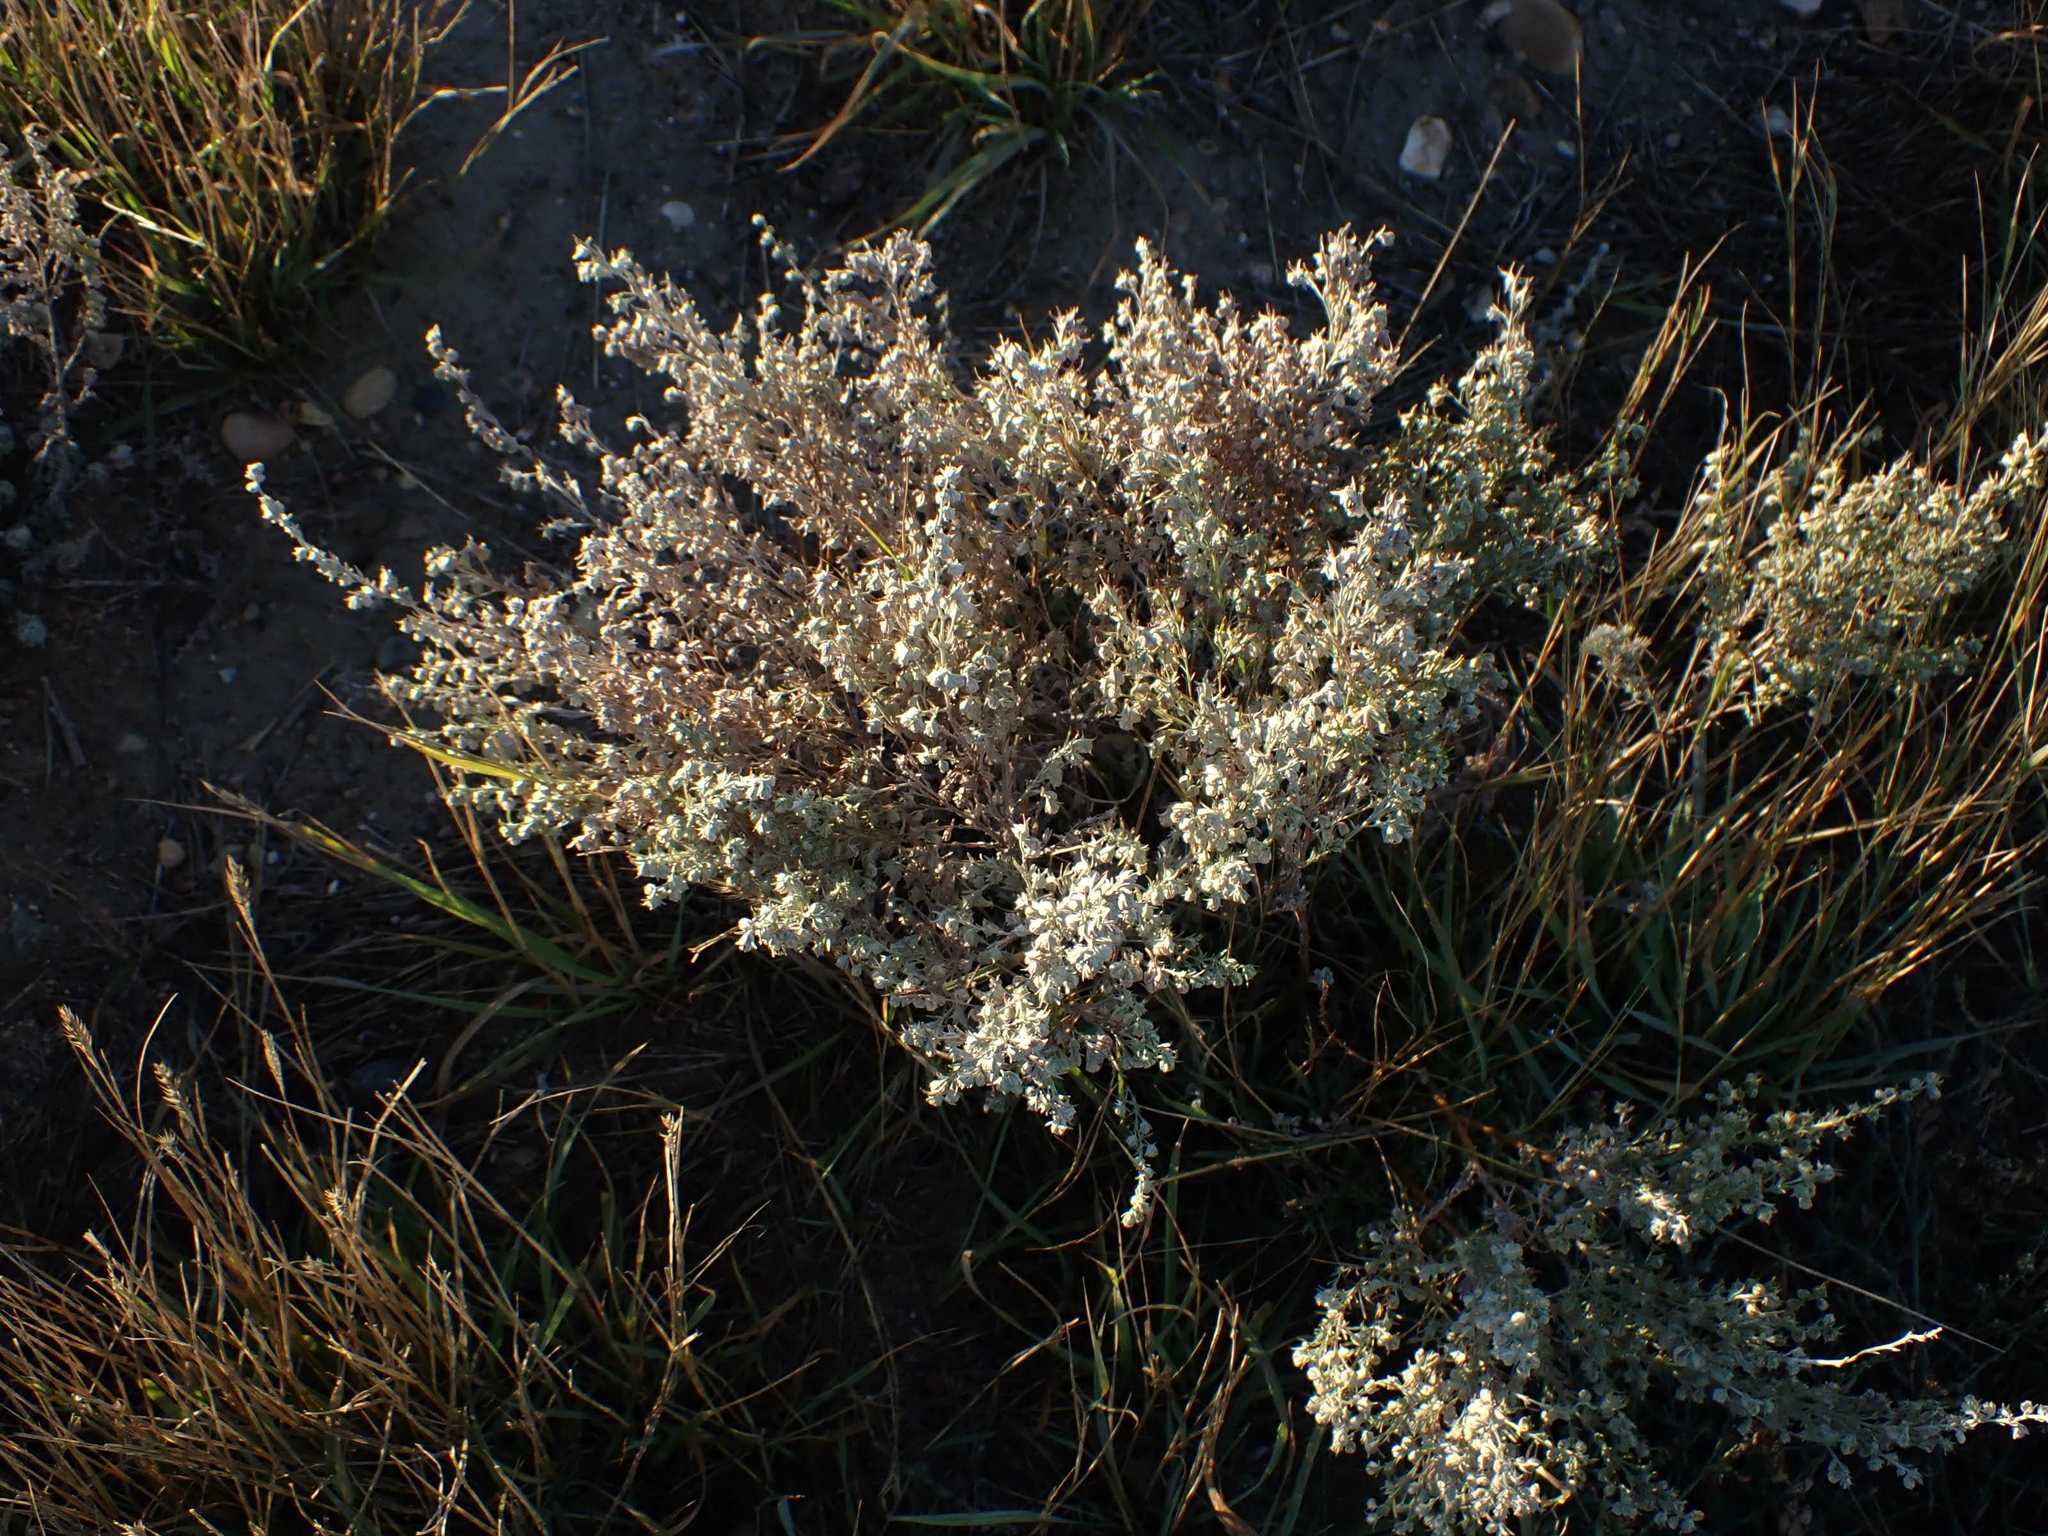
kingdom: Plantae
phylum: Tracheophyta
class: Magnoliopsida
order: Asterales
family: Asteraceae
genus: Artemisia
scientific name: Artemisia frigida
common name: Prairie sagewort
